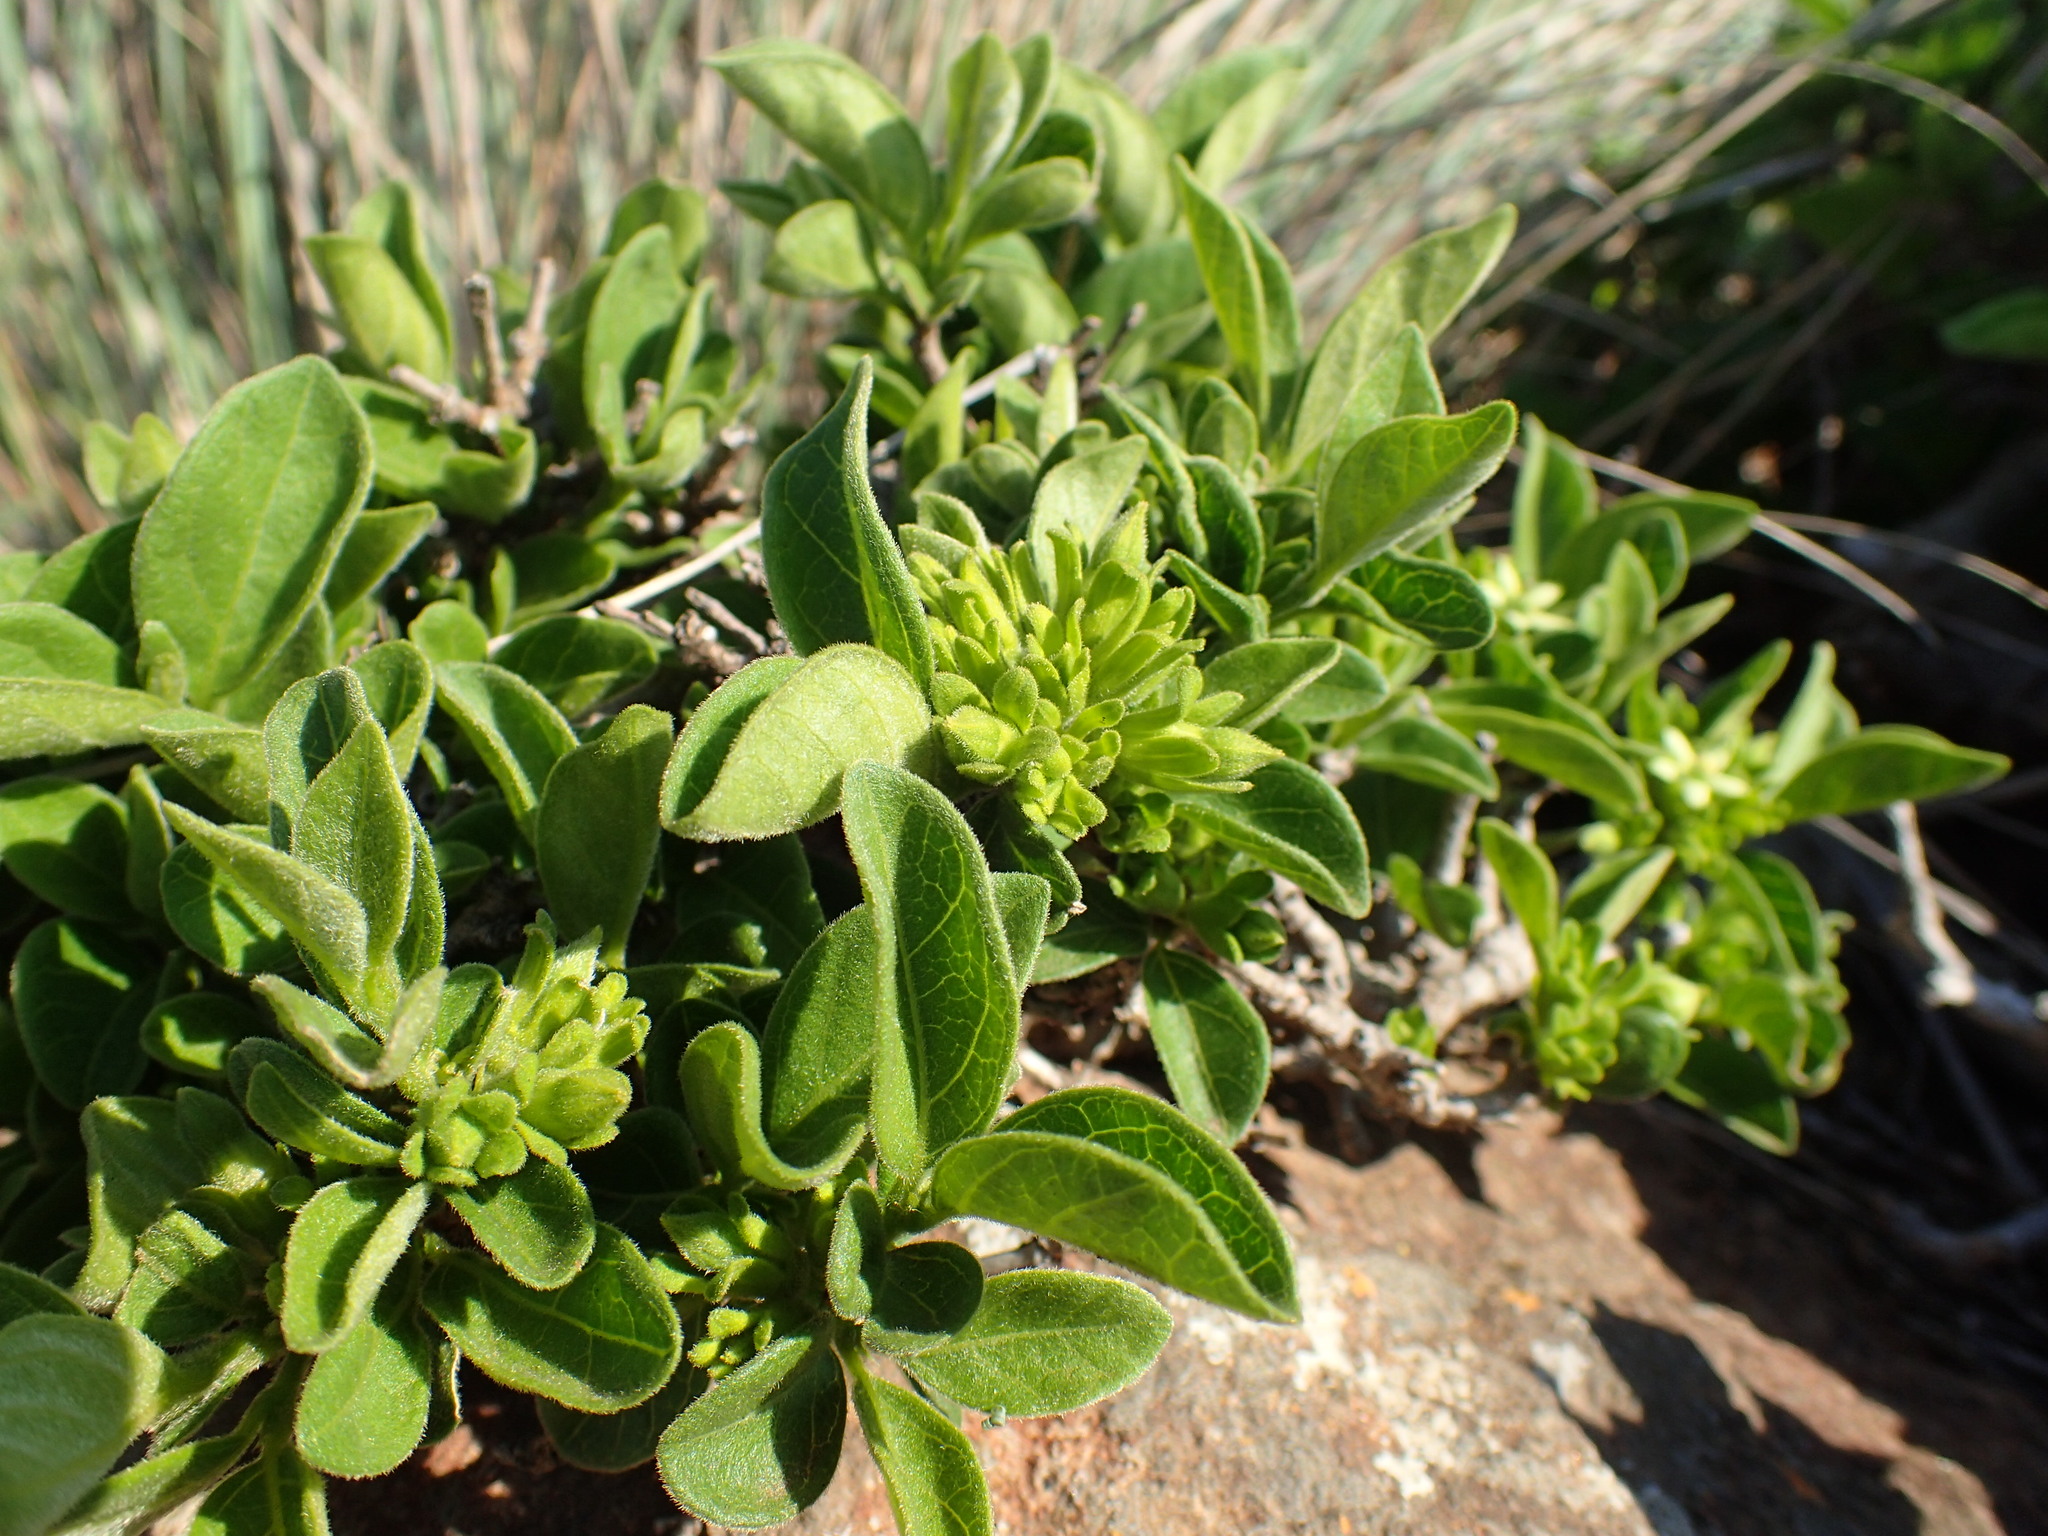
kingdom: Plantae
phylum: Tracheophyta
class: Magnoliopsida
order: Gentianales
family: Rubiaceae
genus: Vangueria
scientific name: Vangueria macrocalyx
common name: Crowned-medlar
